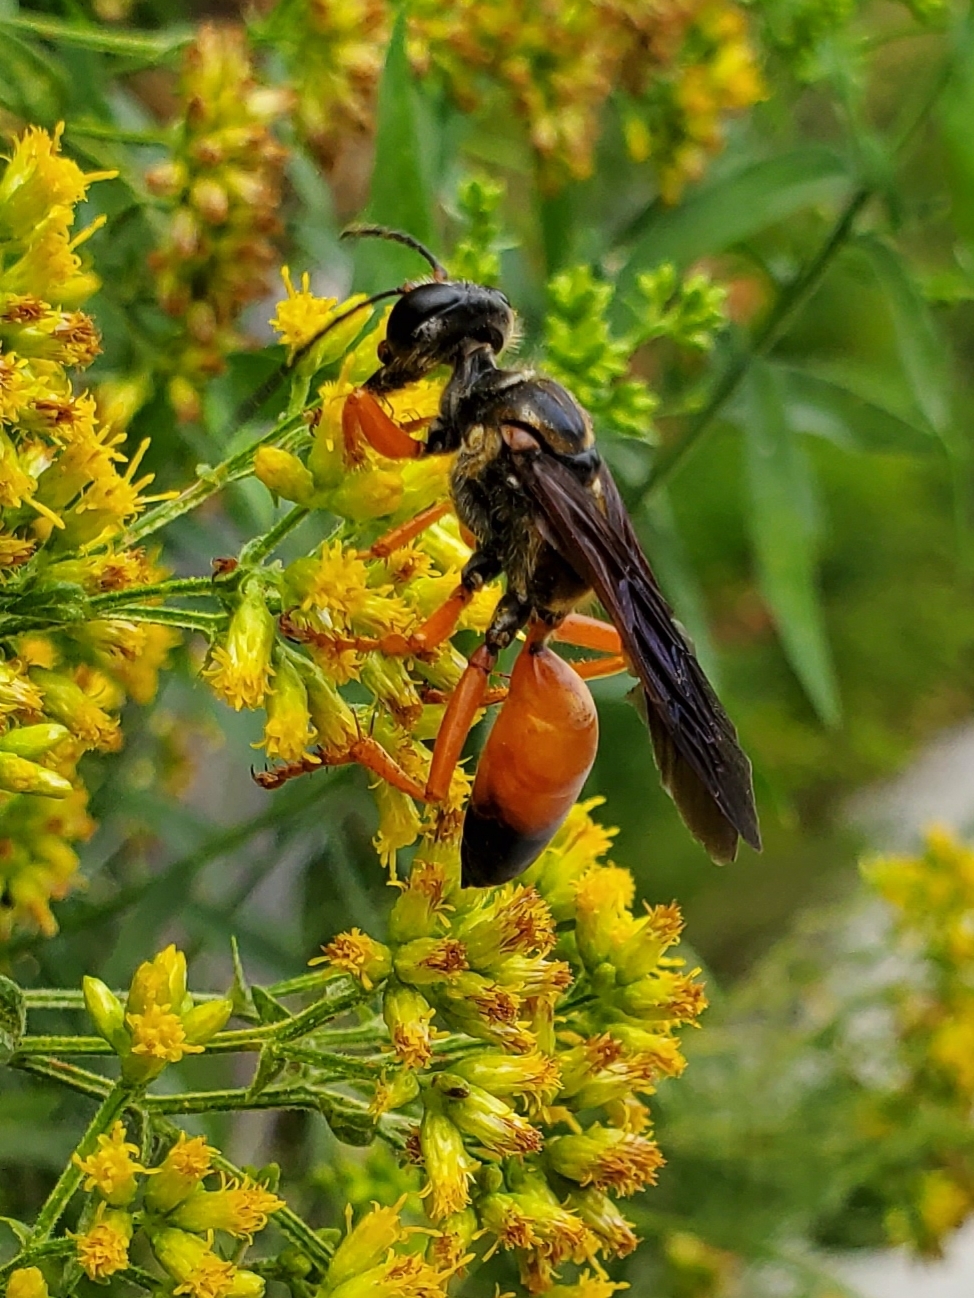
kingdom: Animalia
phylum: Arthropoda
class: Insecta
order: Hymenoptera
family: Sphecidae
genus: Sphex
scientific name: Sphex ichneumoneus
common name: Great golden digger wasp
